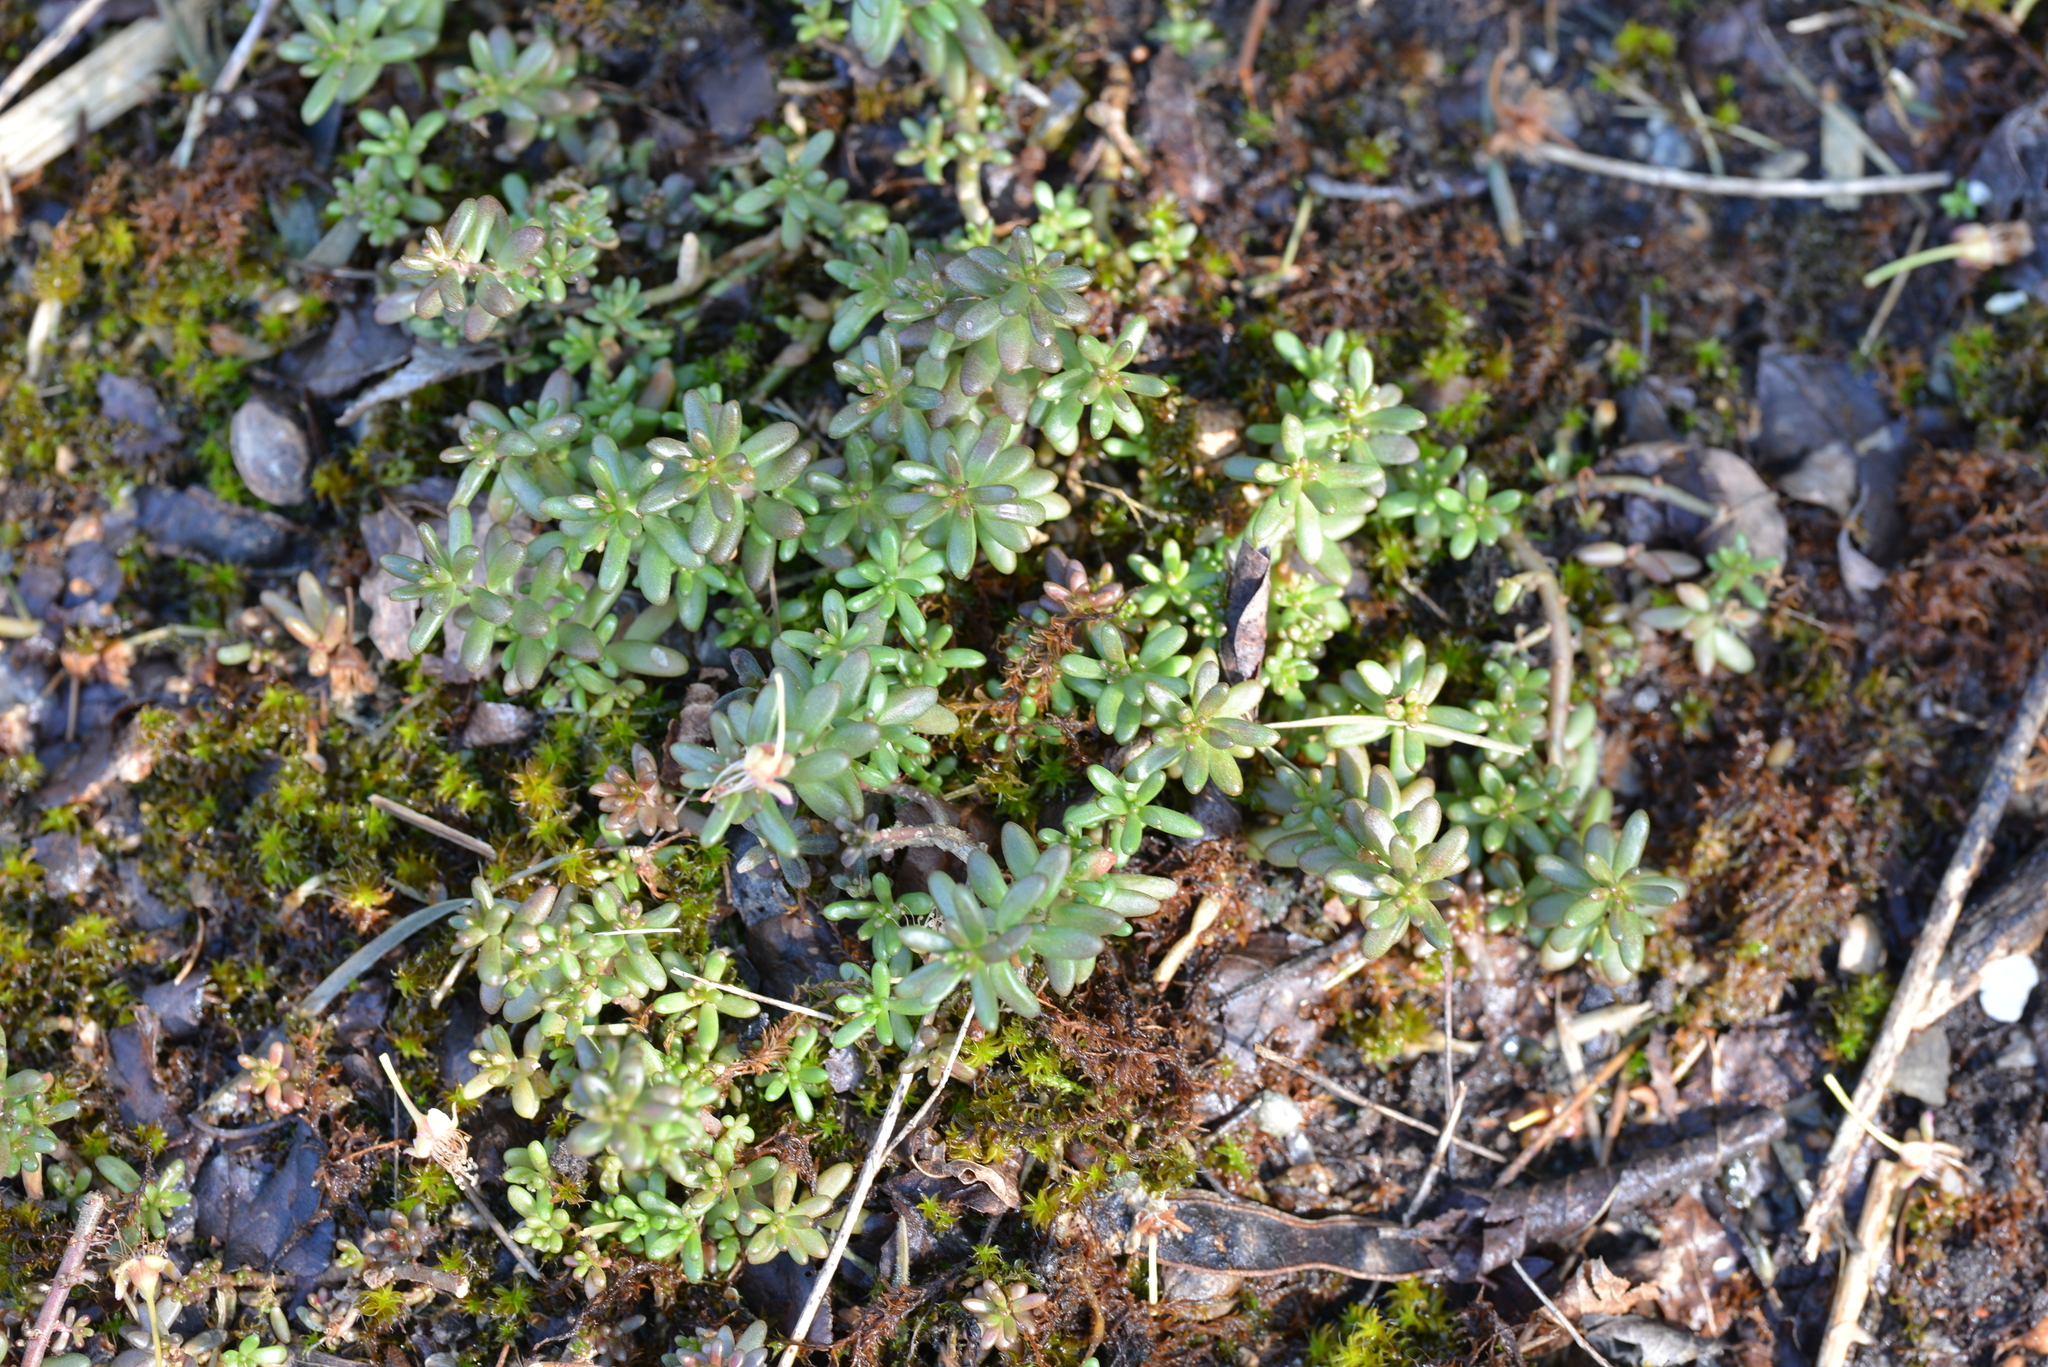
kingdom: Plantae
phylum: Tracheophyta
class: Magnoliopsida
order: Saxifragales
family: Crassulaceae
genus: Sedum
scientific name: Sedum album
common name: White stonecrop
